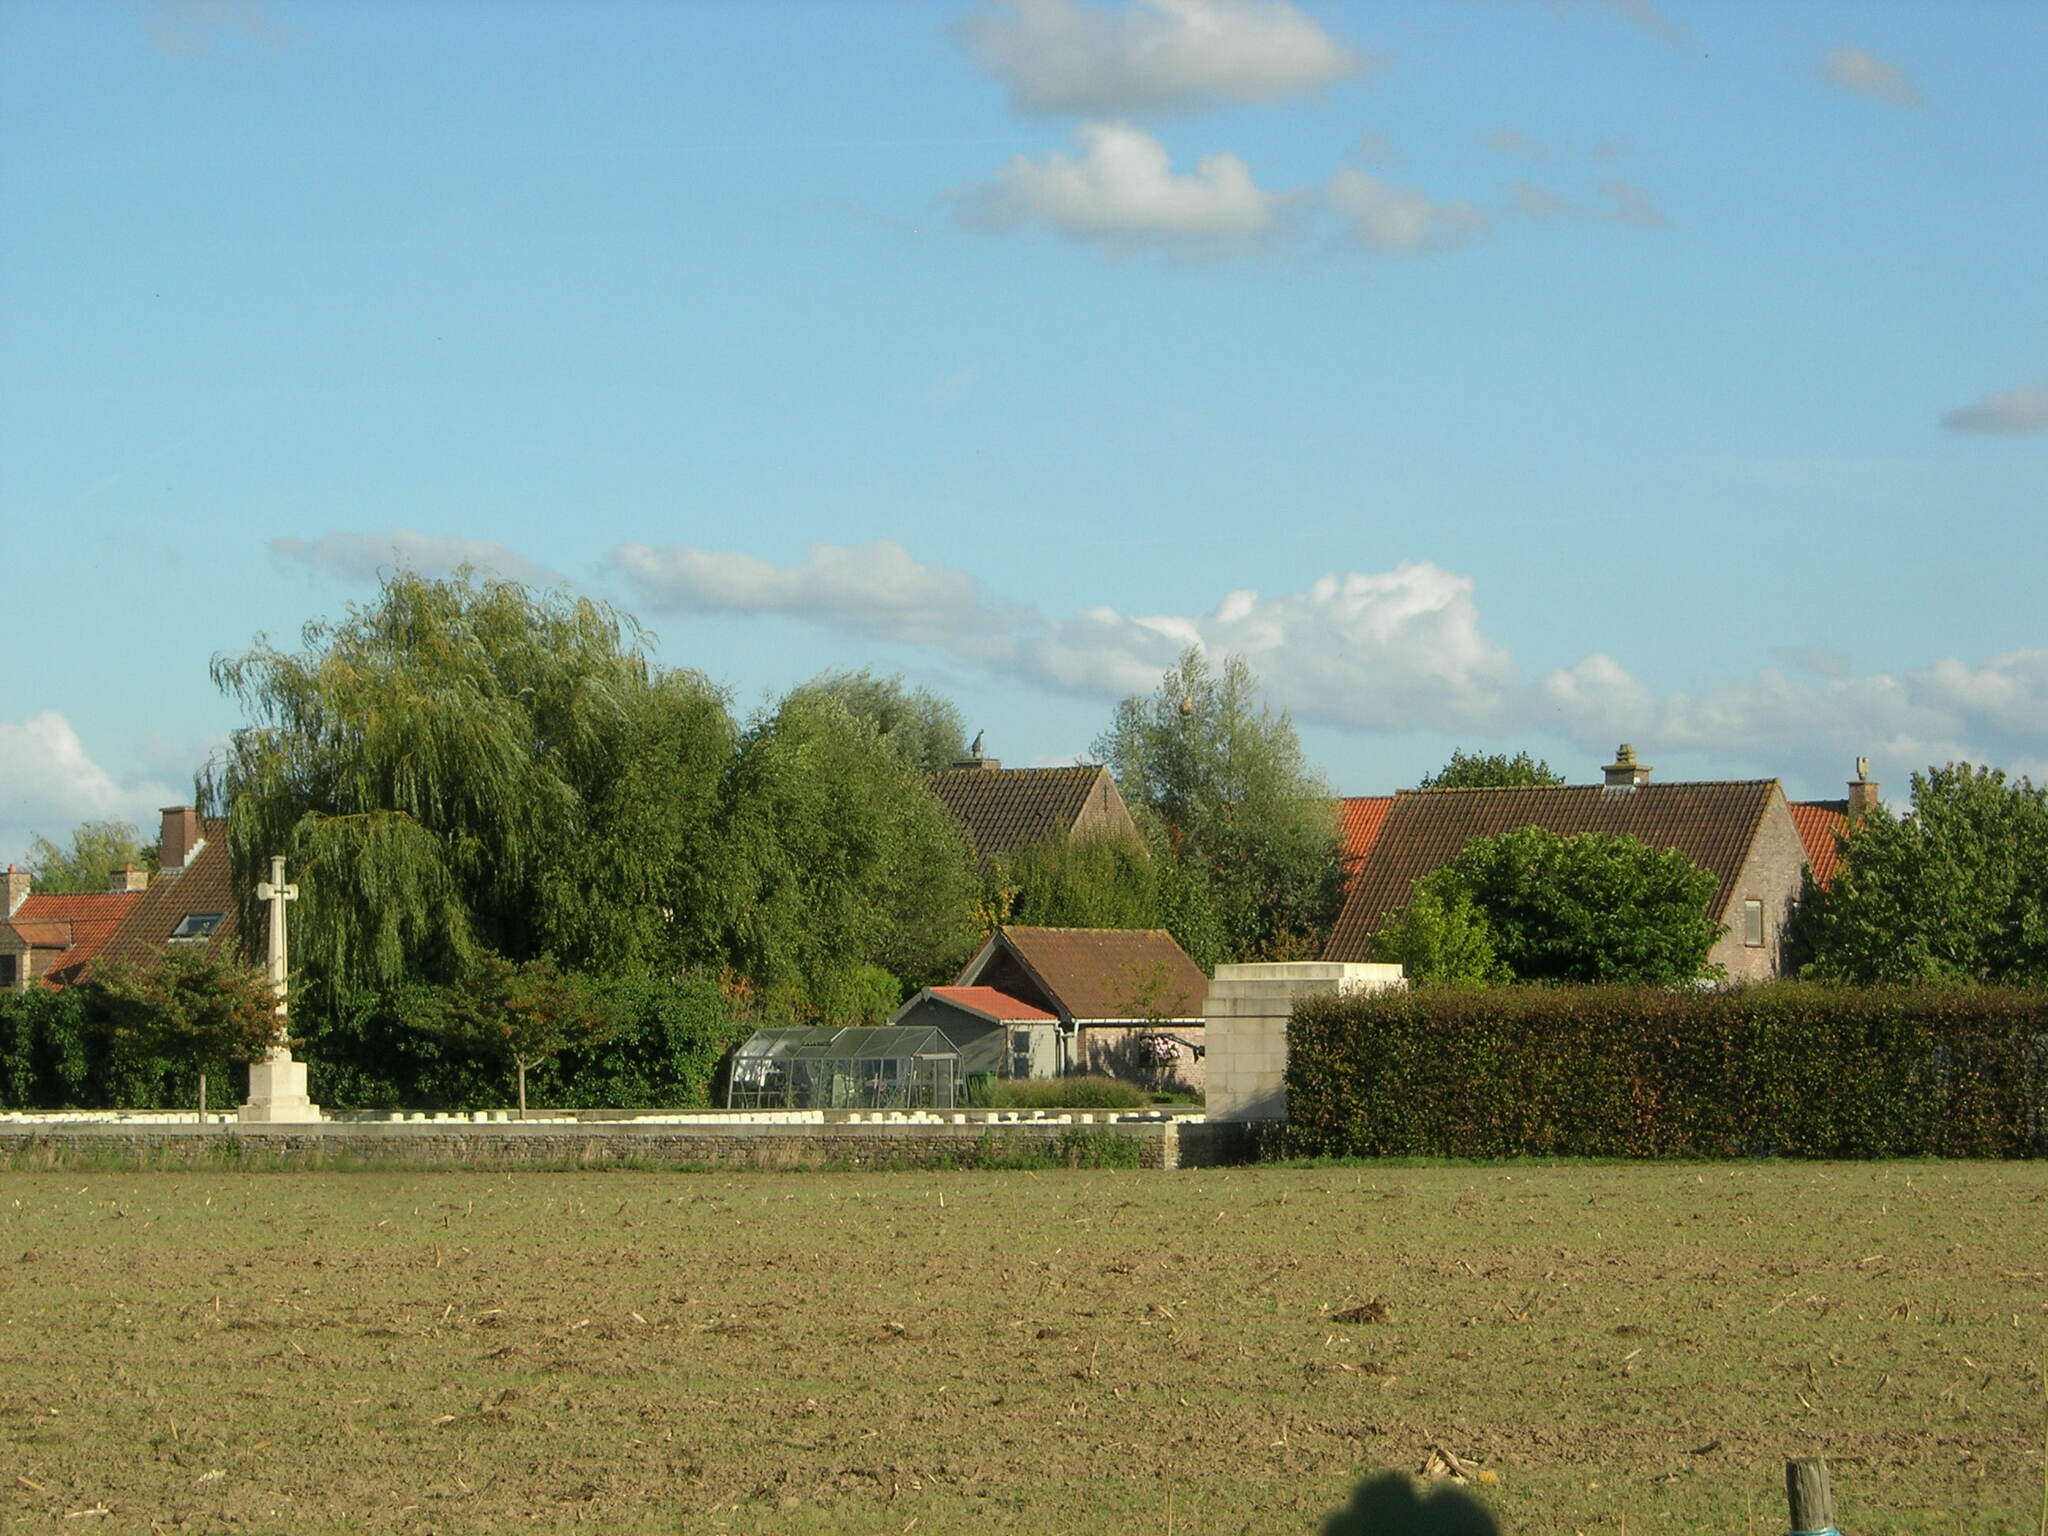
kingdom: Animalia
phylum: Arthropoda
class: Insecta
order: Hymenoptera
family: Vespidae
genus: Vespa
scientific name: Vespa velutina
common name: Asian hornet
